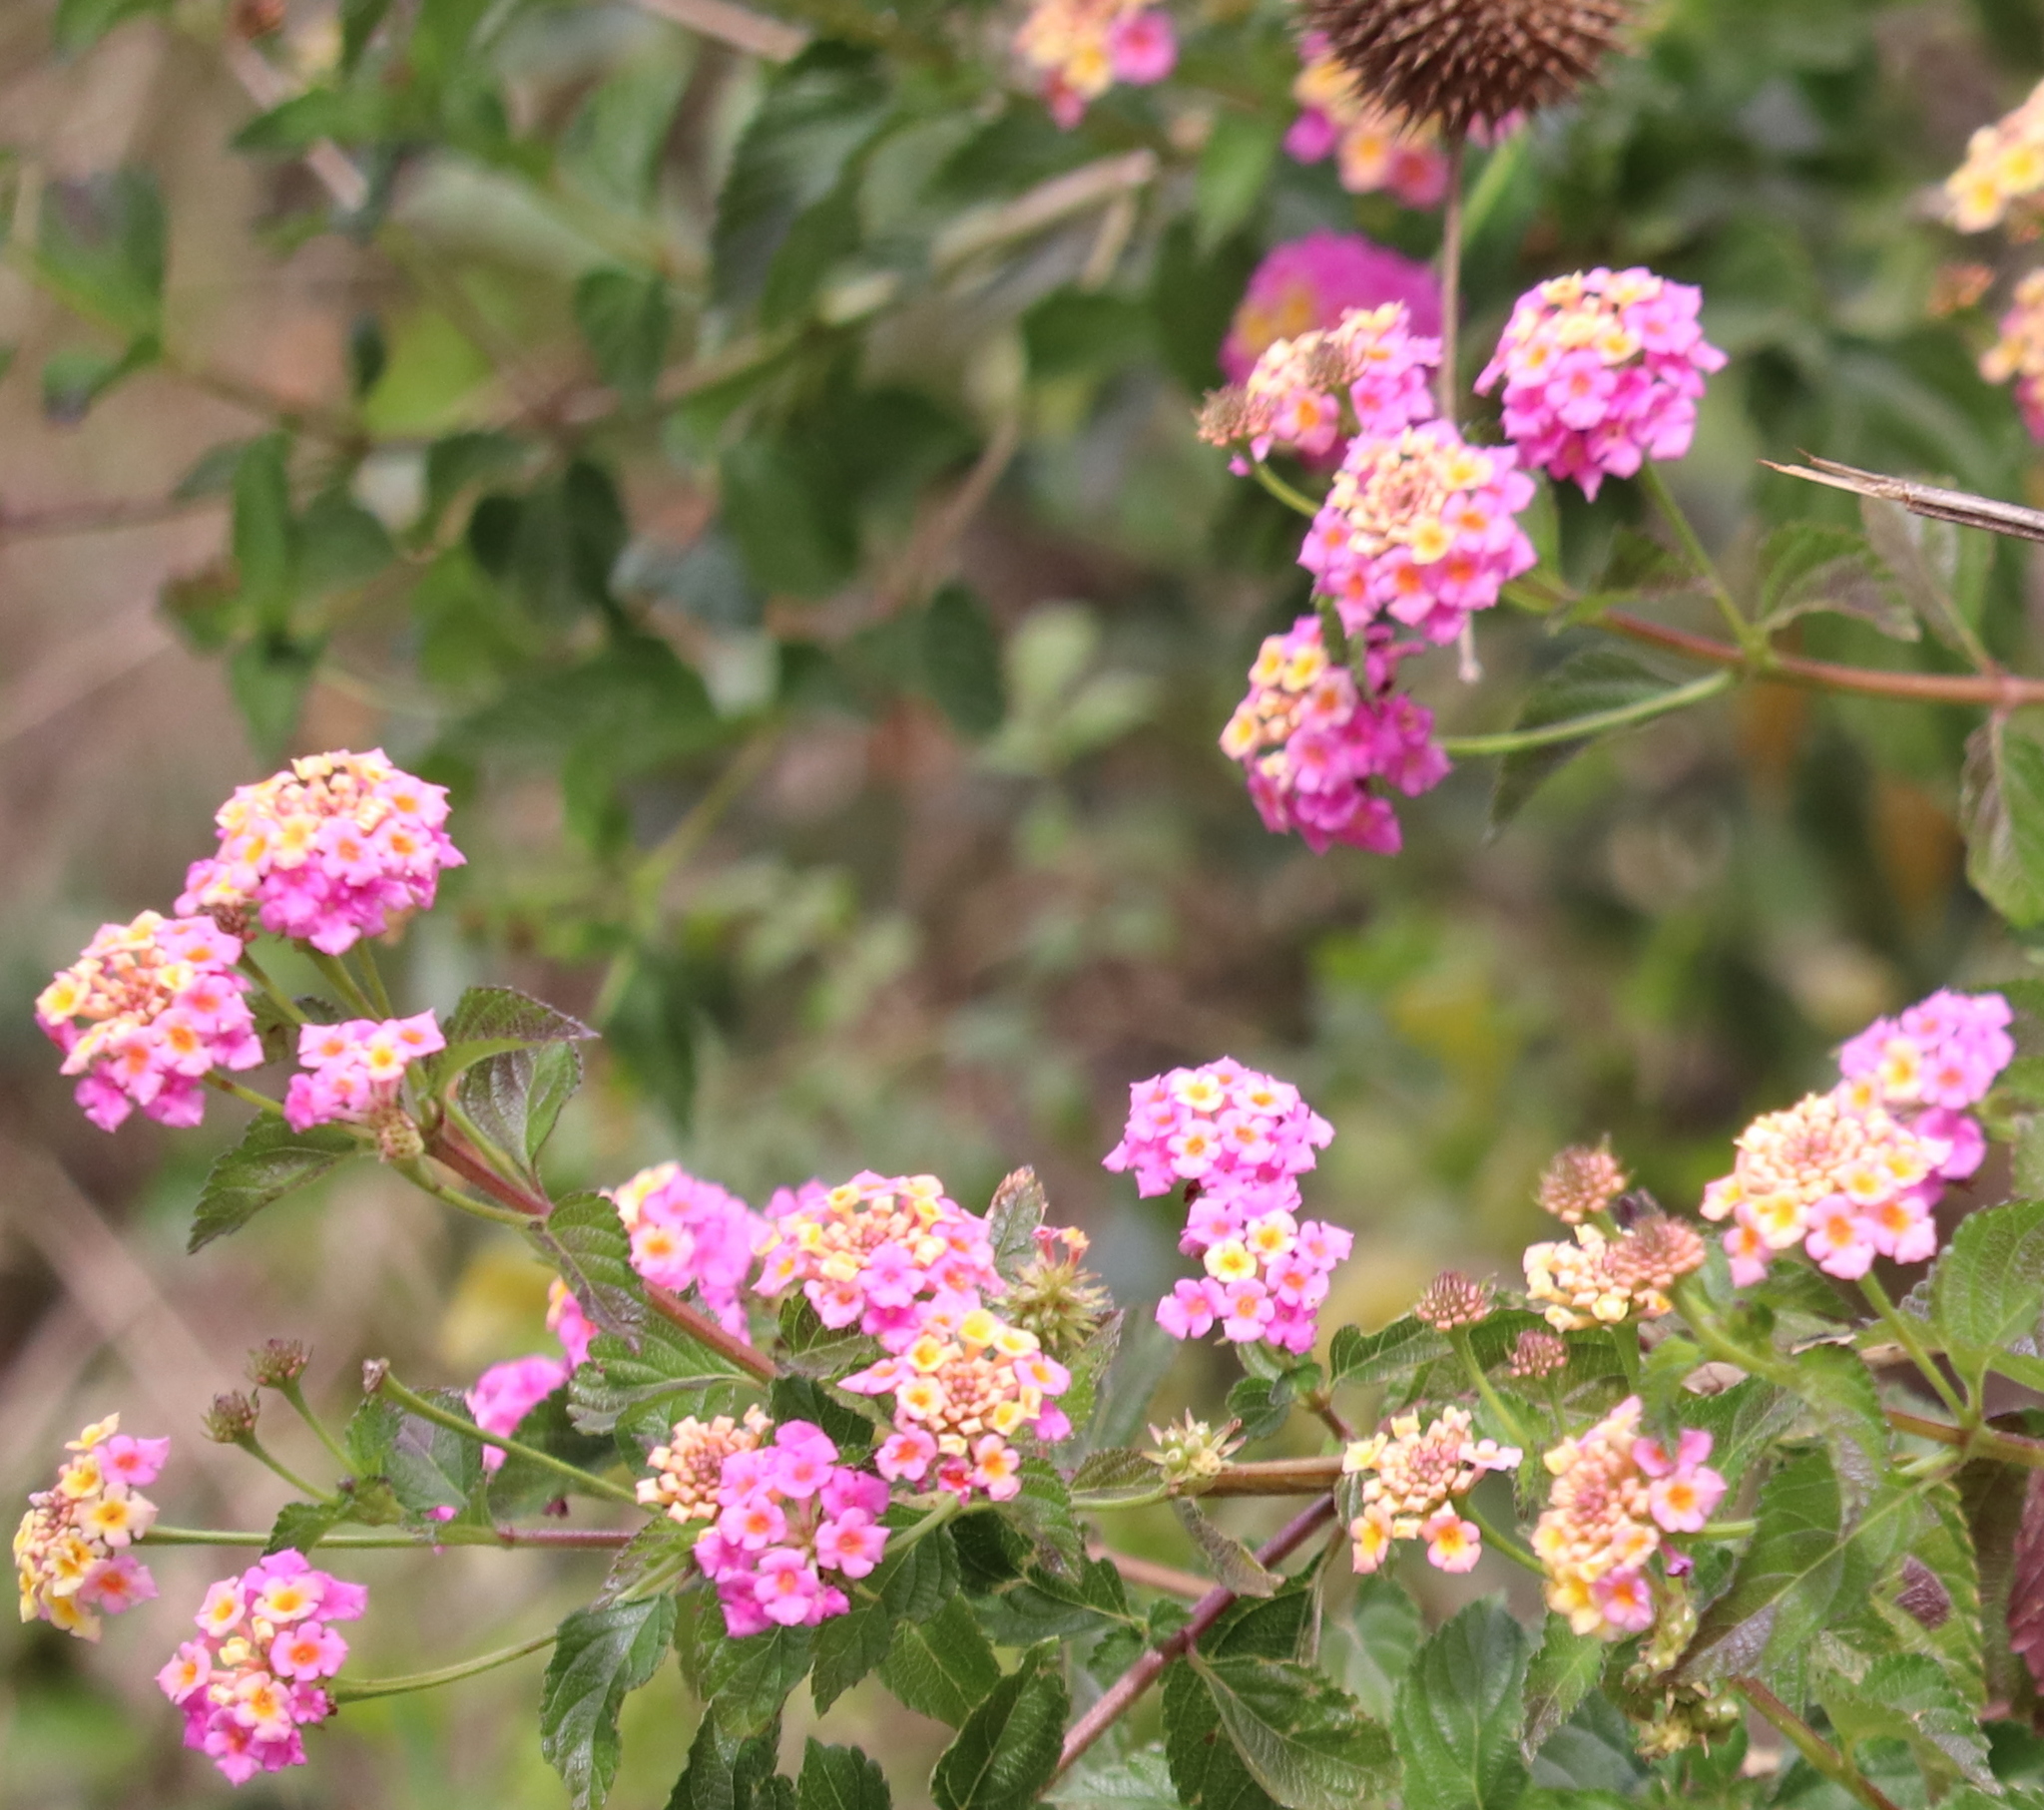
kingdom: Plantae
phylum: Tracheophyta
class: Magnoliopsida
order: Lamiales
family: Verbenaceae
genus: Lantana
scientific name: Lantana camara
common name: Lantana
